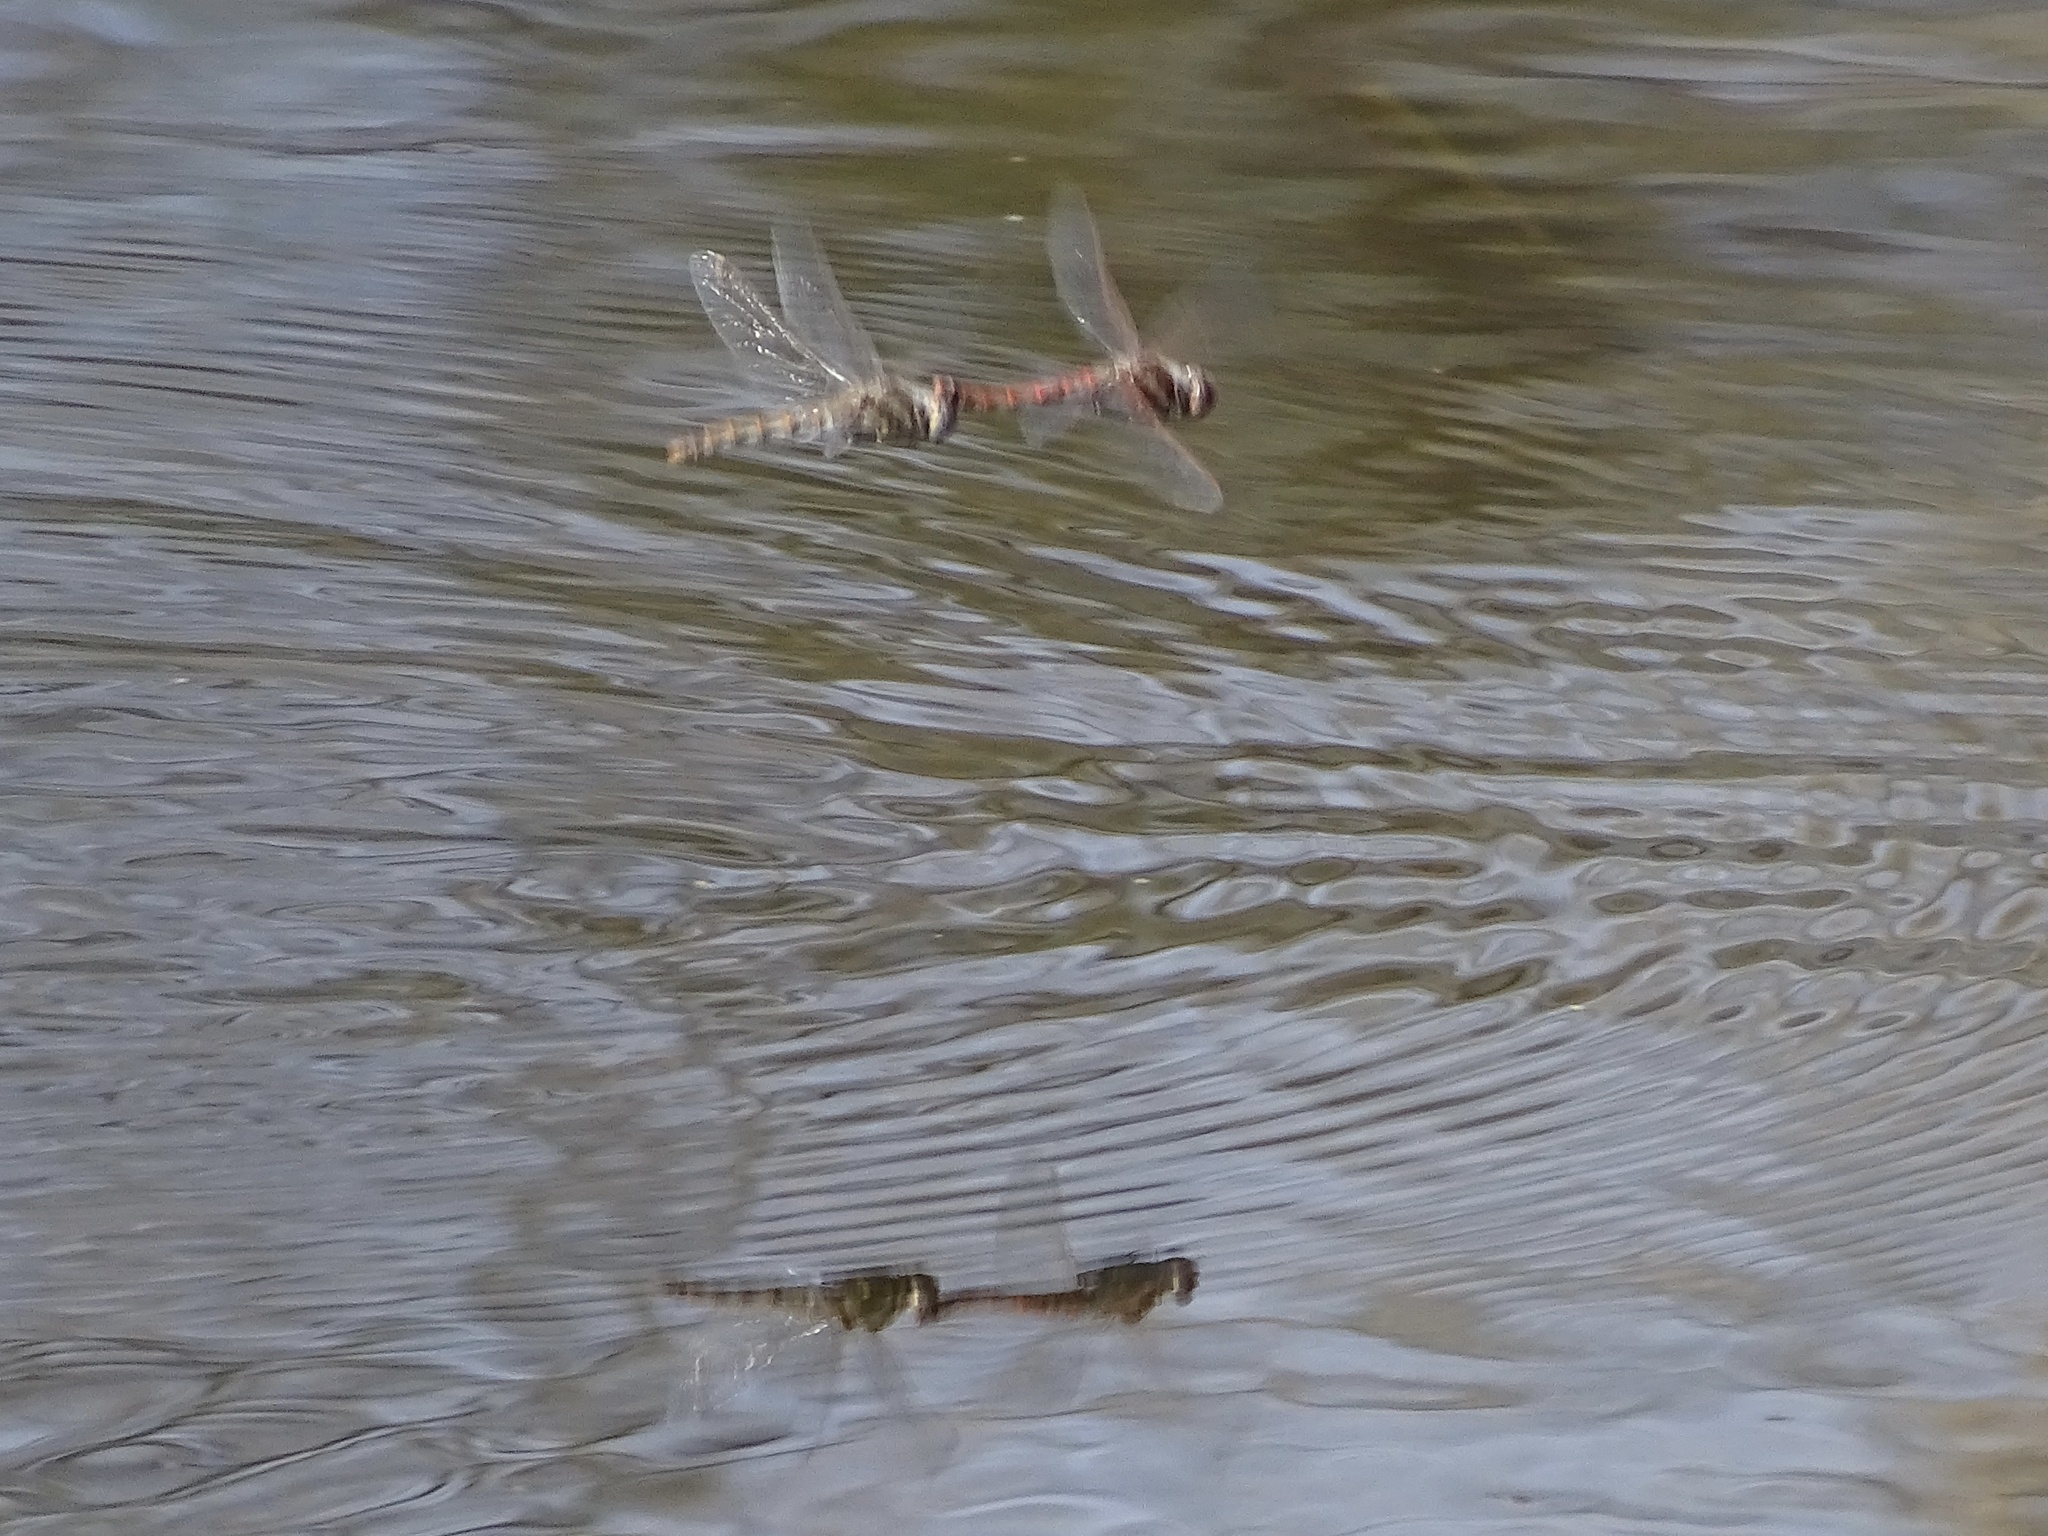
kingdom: Animalia
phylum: Arthropoda
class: Insecta
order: Odonata
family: Libellulidae
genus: Sympetrum
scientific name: Sympetrum corruptum
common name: Variegated meadowhawk
